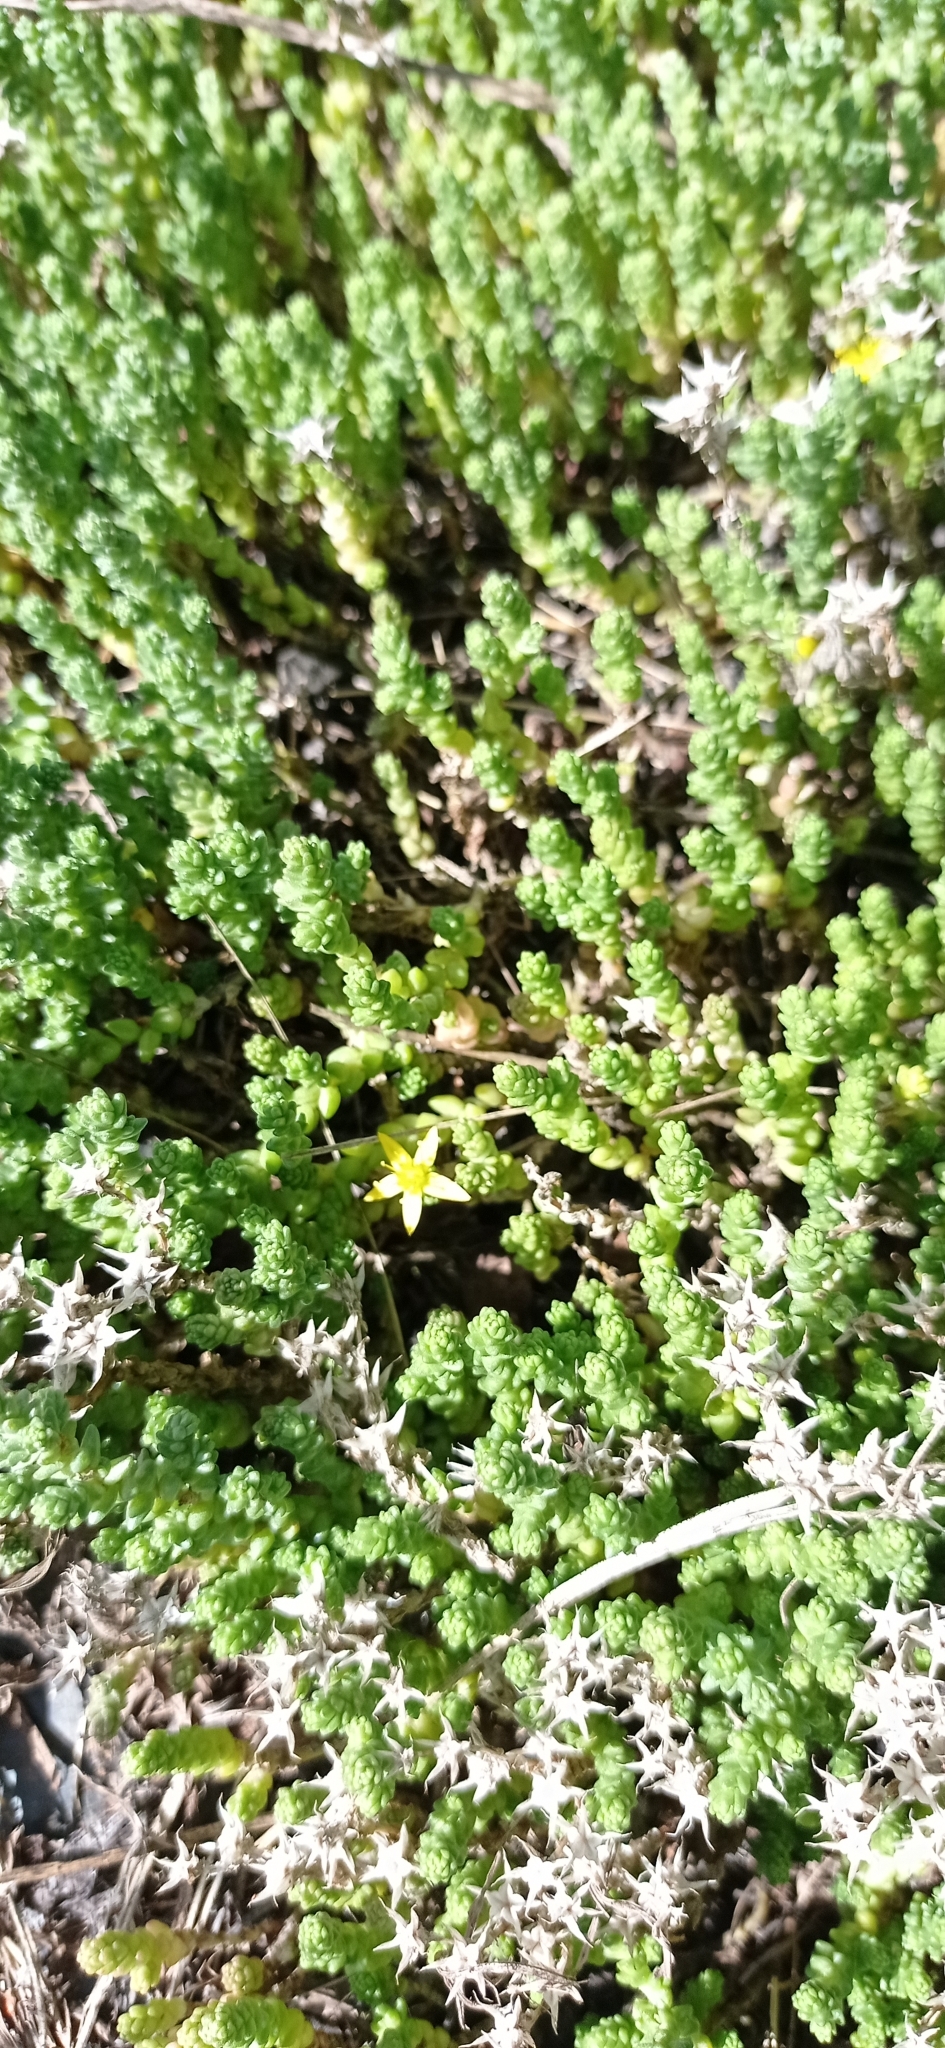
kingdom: Plantae
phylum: Tracheophyta
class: Magnoliopsida
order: Saxifragales
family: Crassulaceae
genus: Sedum
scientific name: Sedum acre
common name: Biting stonecrop
